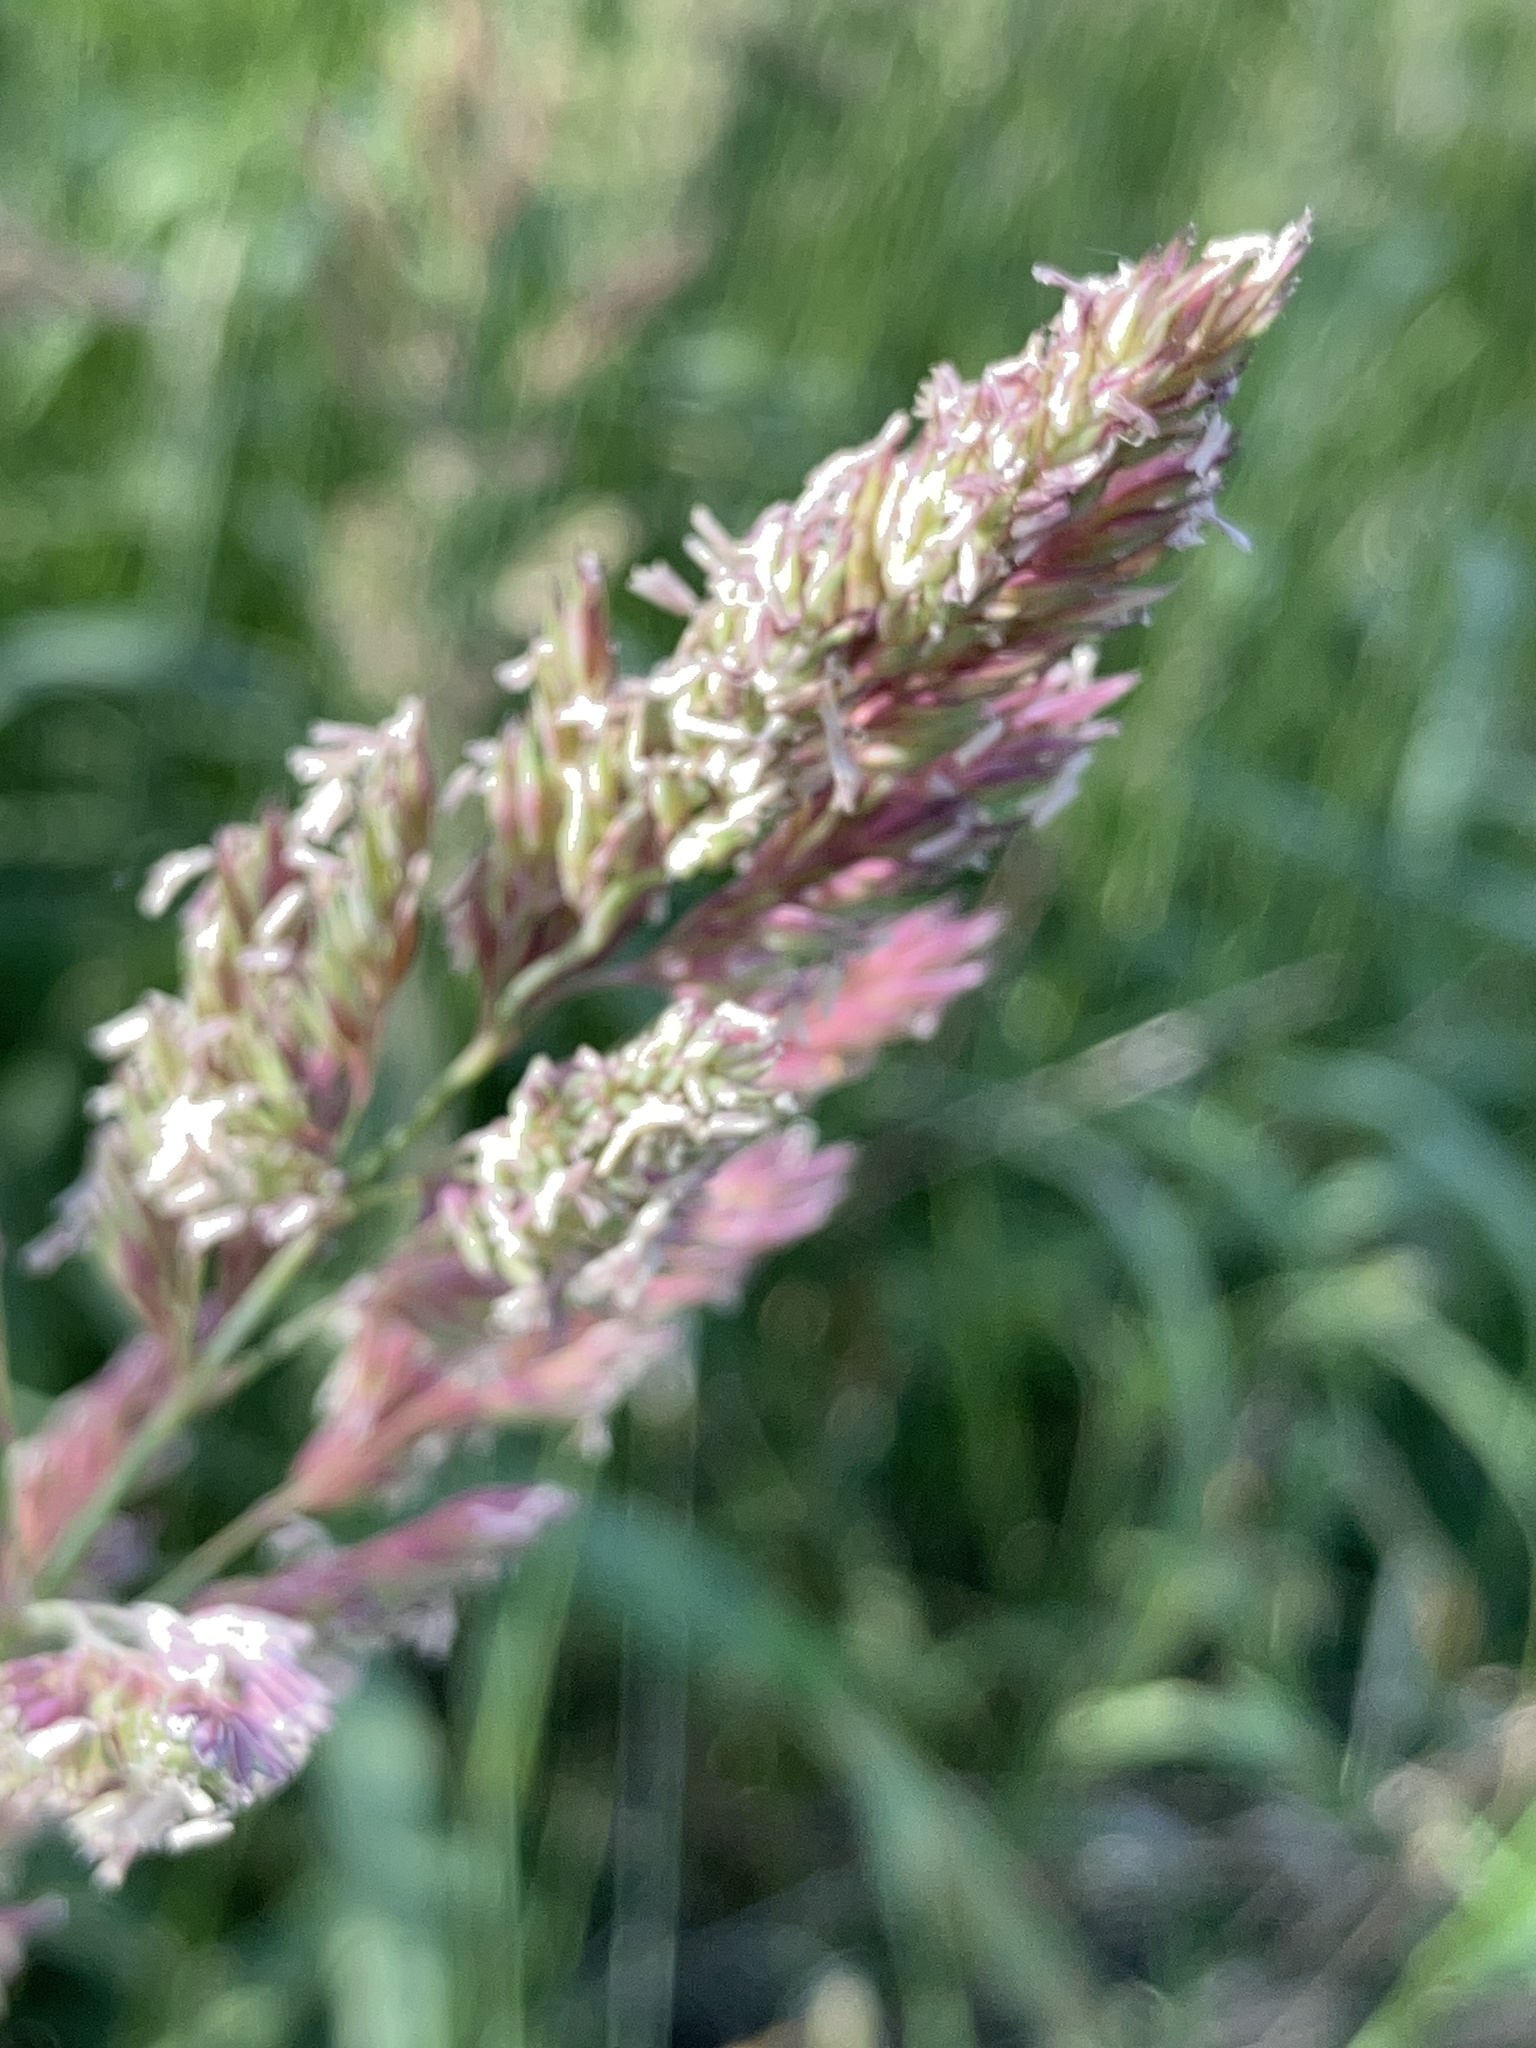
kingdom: Plantae
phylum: Tracheophyta
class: Liliopsida
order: Poales
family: Poaceae
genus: Phalaris
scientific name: Phalaris arundinacea
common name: Reed canary-grass
